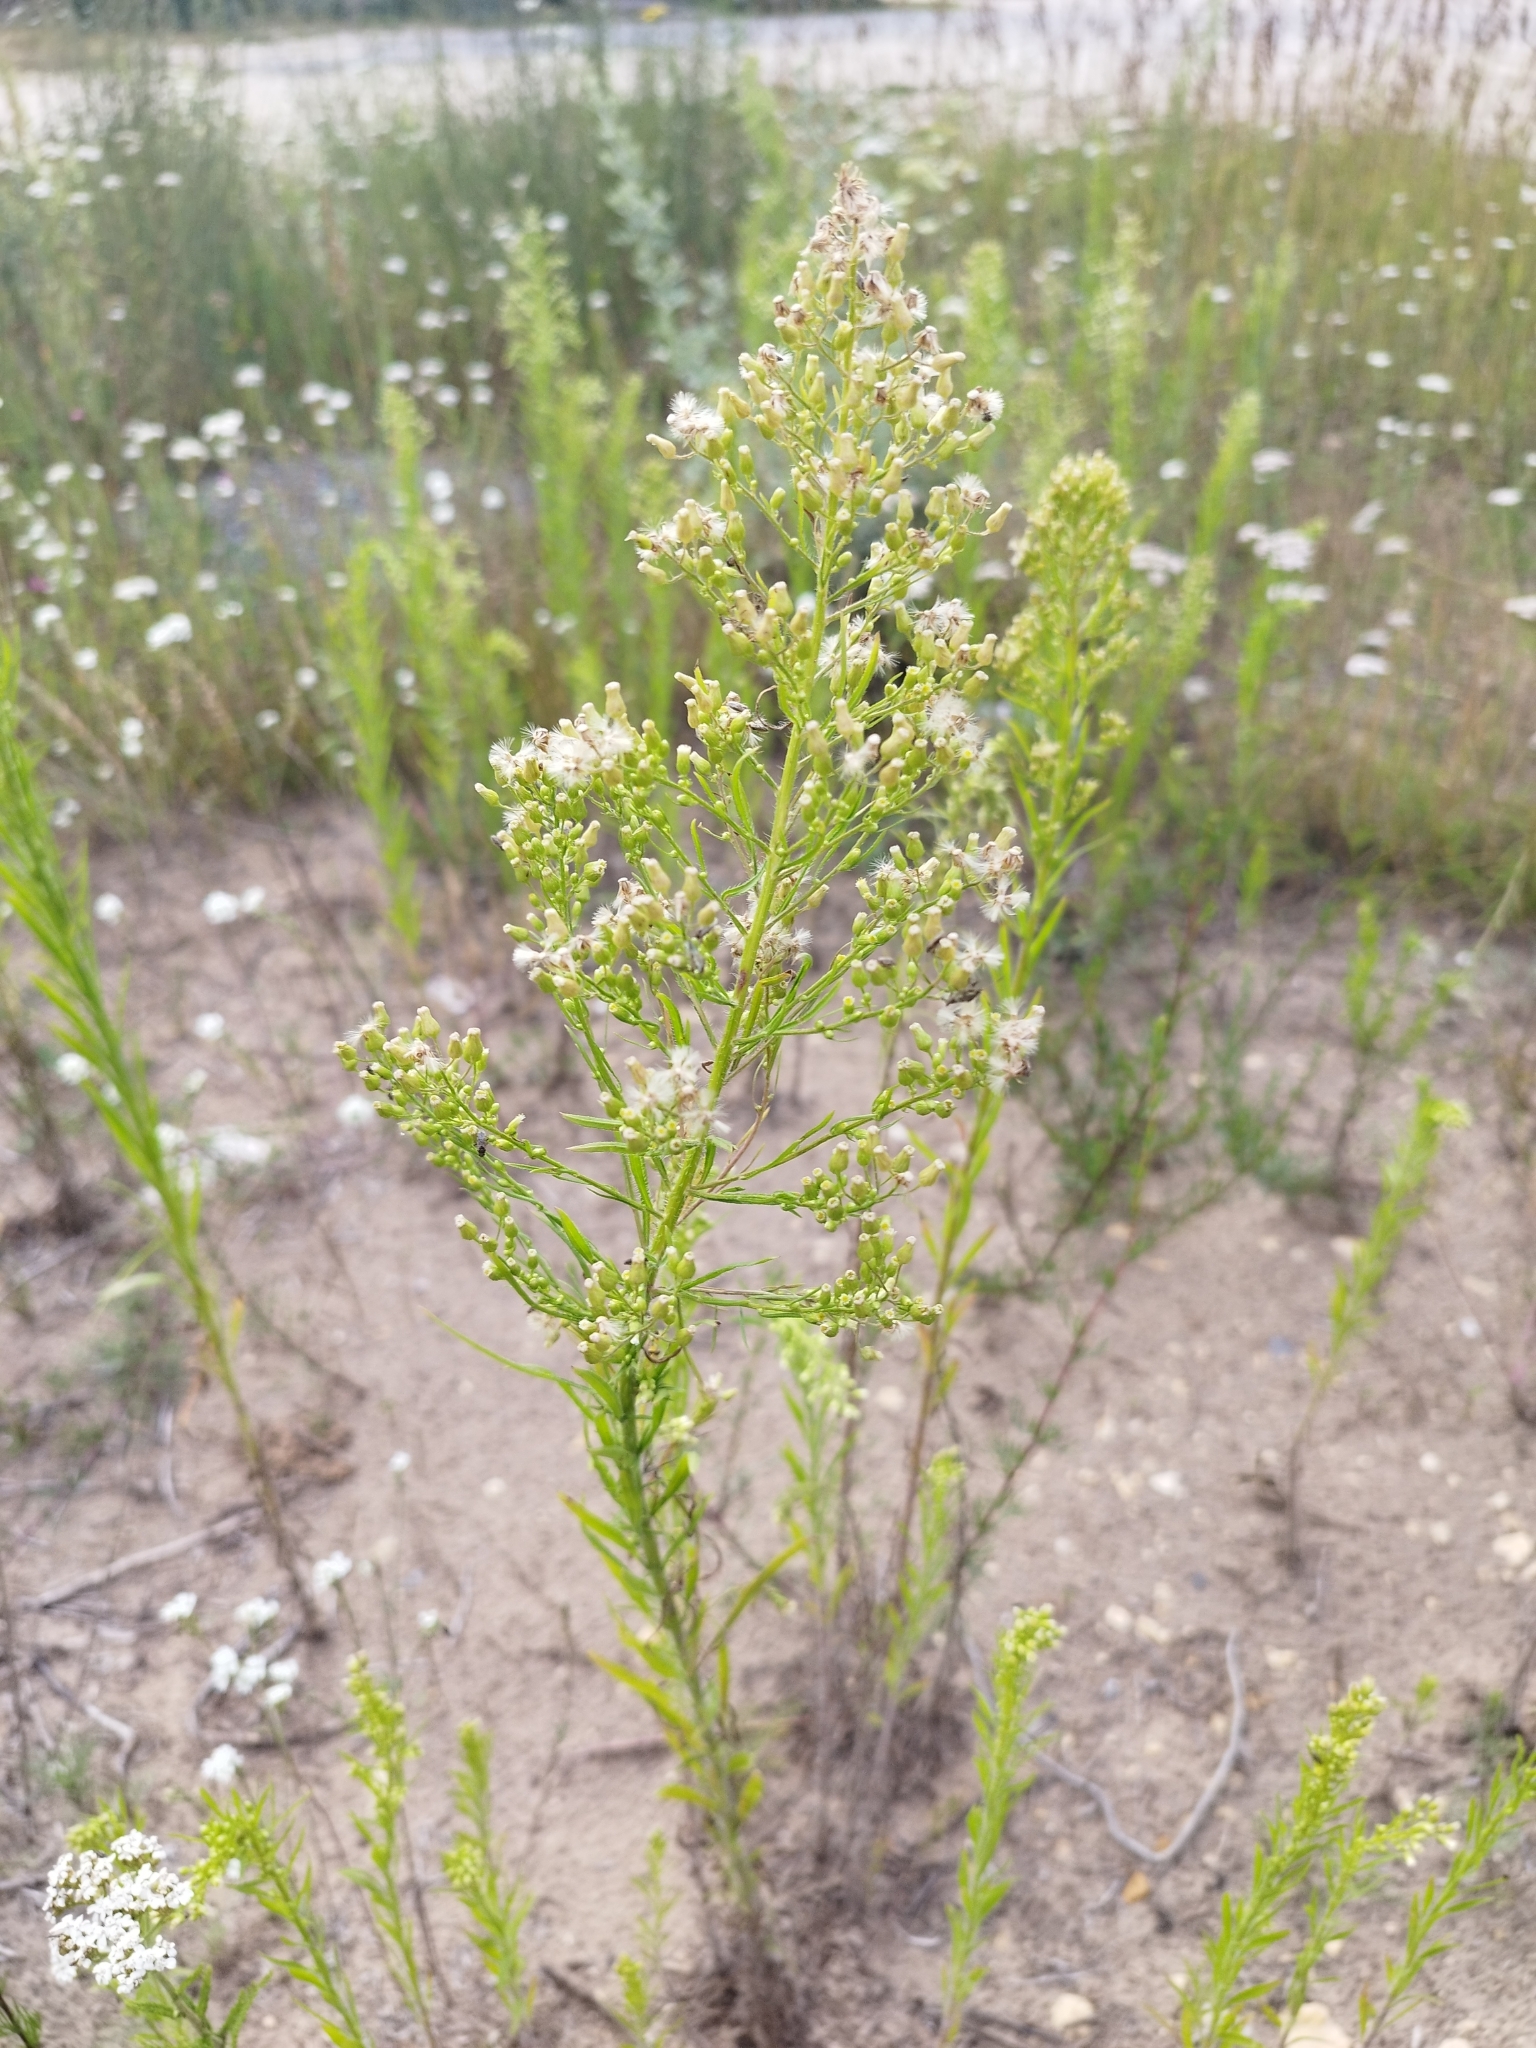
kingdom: Plantae
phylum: Tracheophyta
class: Magnoliopsida
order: Asterales
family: Asteraceae
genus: Erigeron
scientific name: Erigeron canadensis
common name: Canadian fleabane
